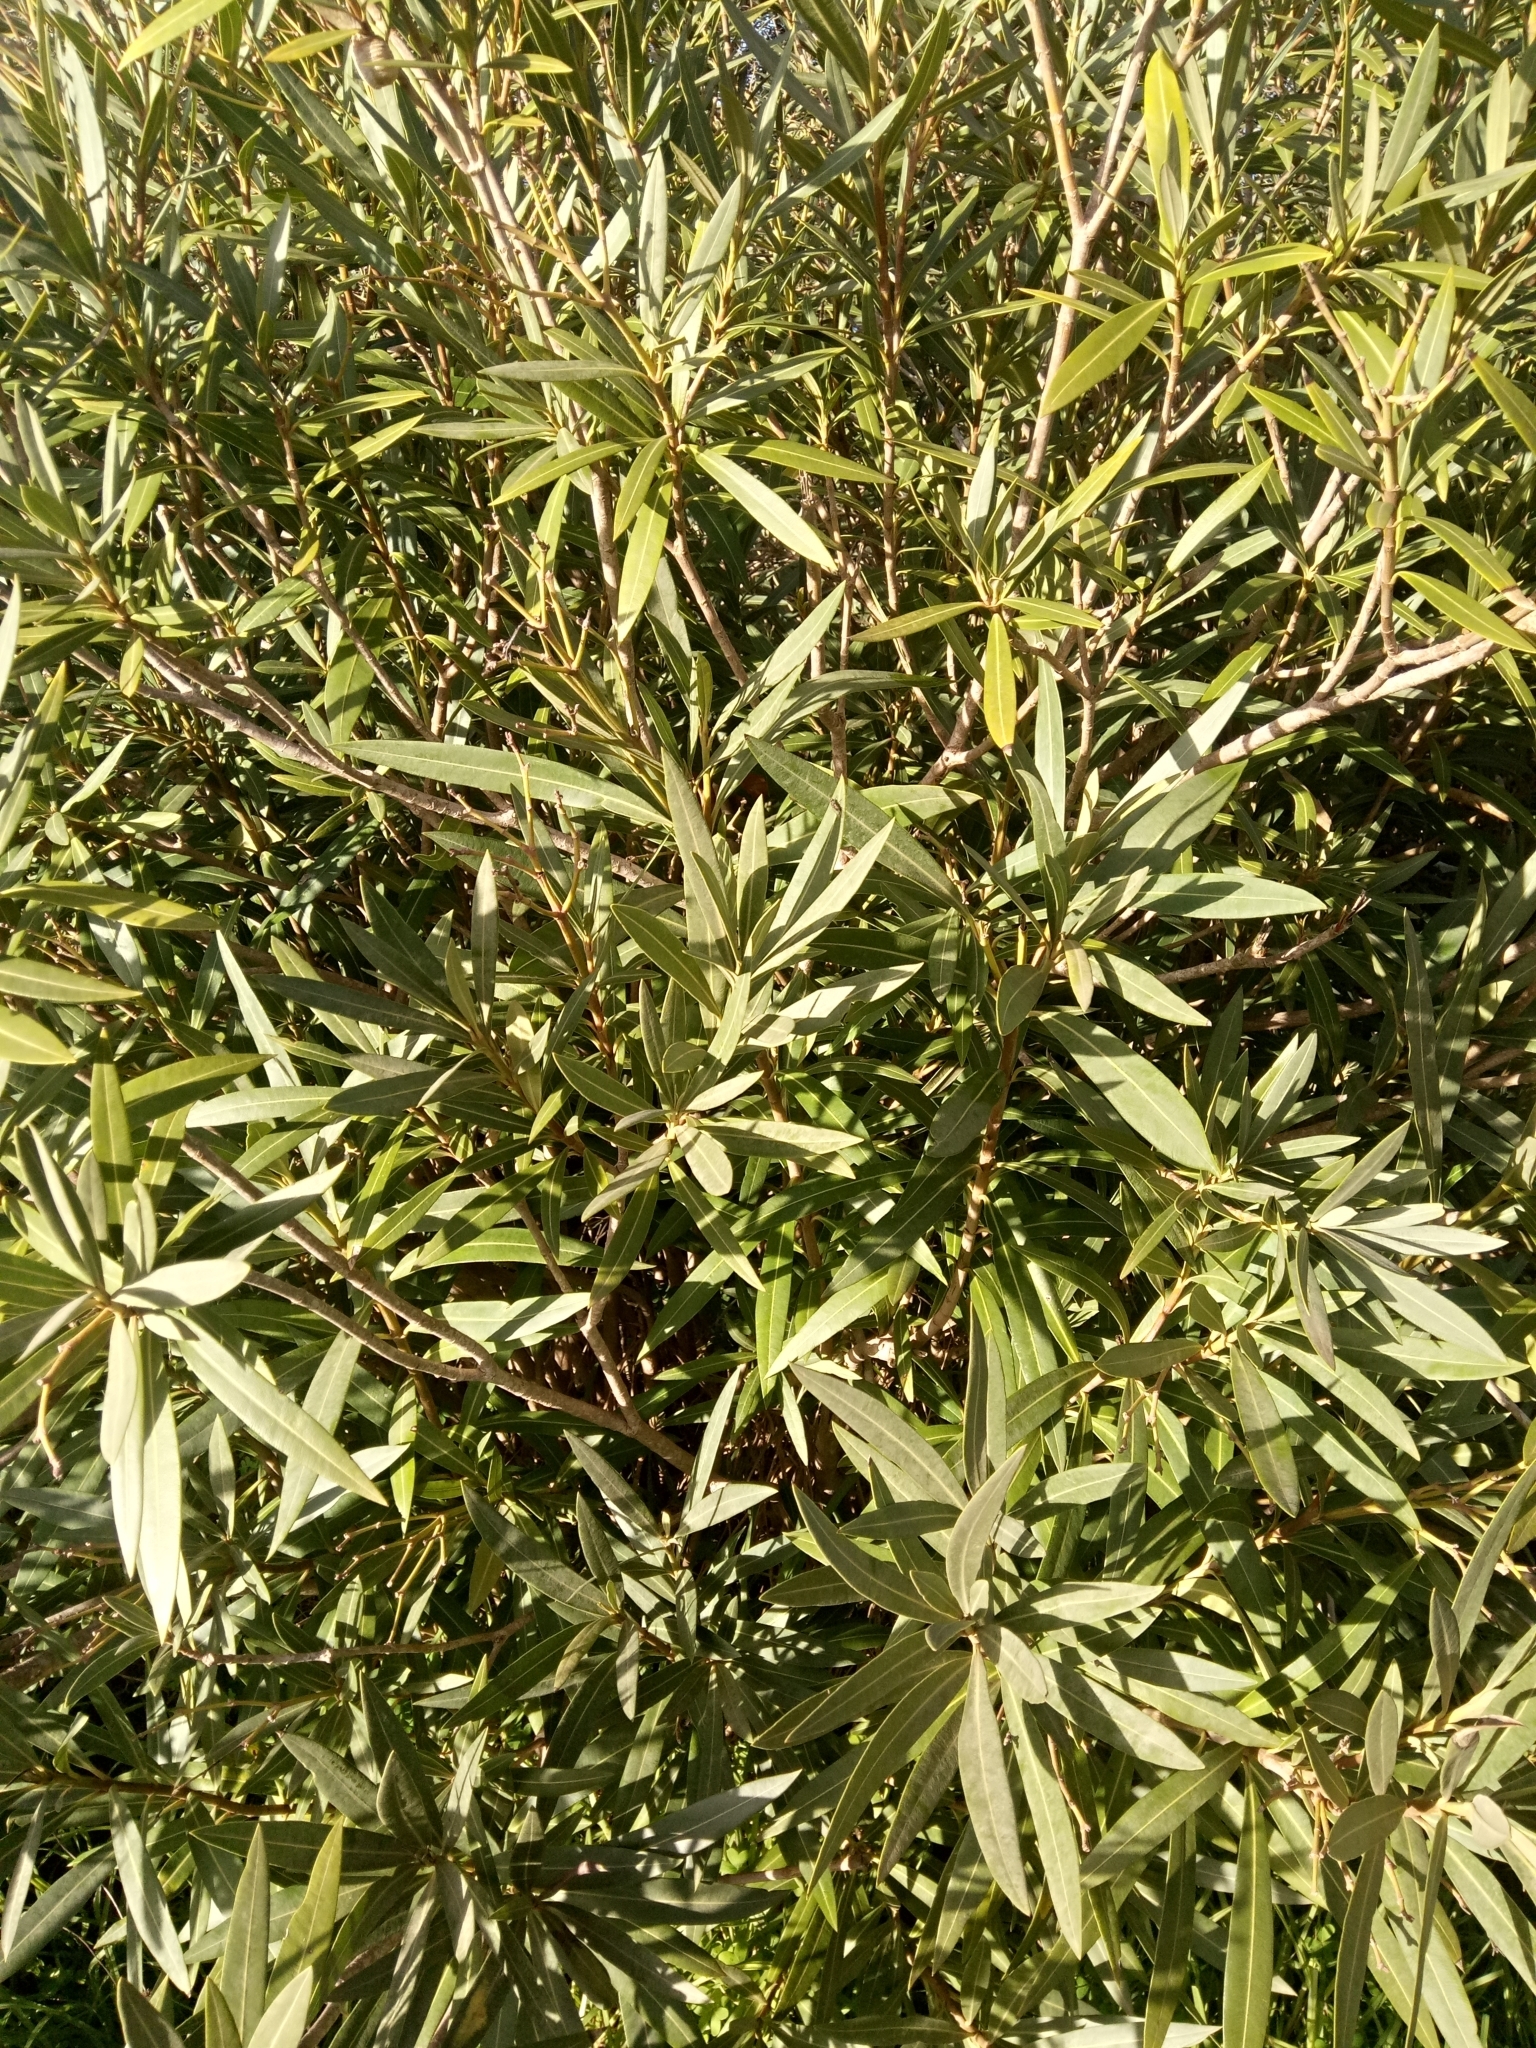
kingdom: Plantae
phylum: Tracheophyta
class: Magnoliopsida
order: Gentianales
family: Apocynaceae
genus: Nerium
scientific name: Nerium oleander
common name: Oleander
